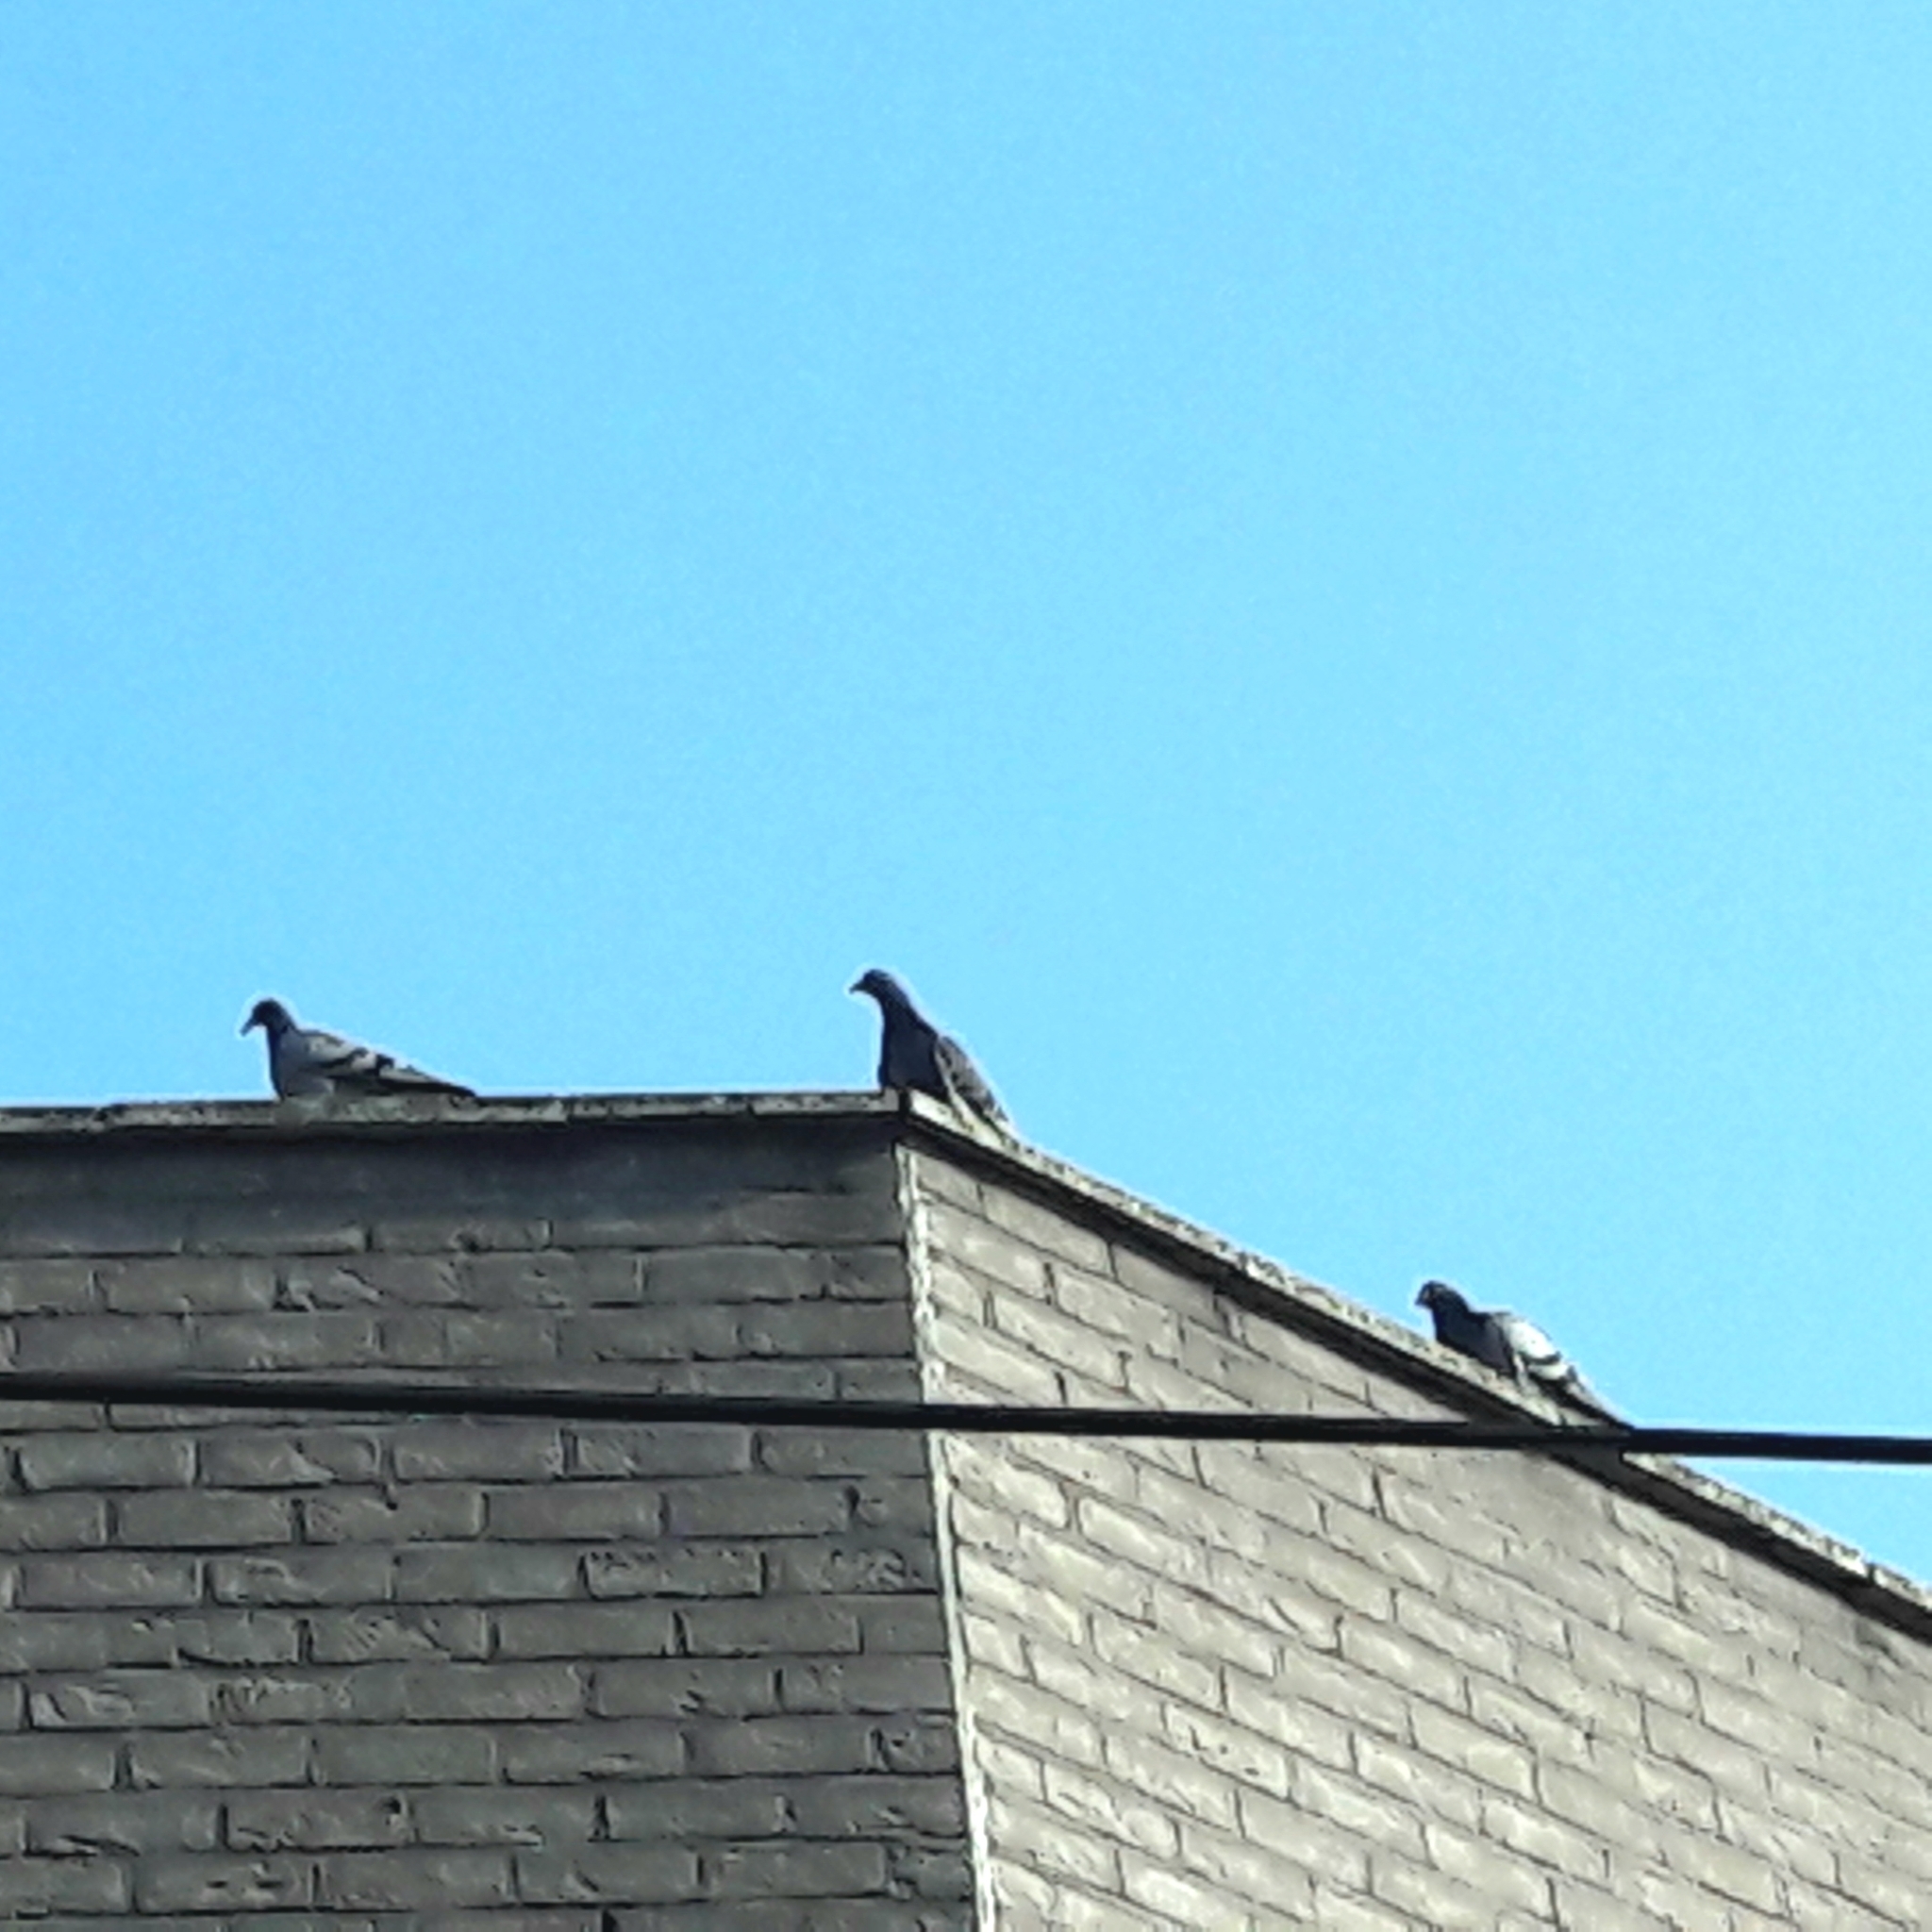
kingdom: Animalia
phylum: Chordata
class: Aves
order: Columbiformes
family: Columbidae
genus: Columba
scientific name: Columba livia
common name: Rock pigeon
